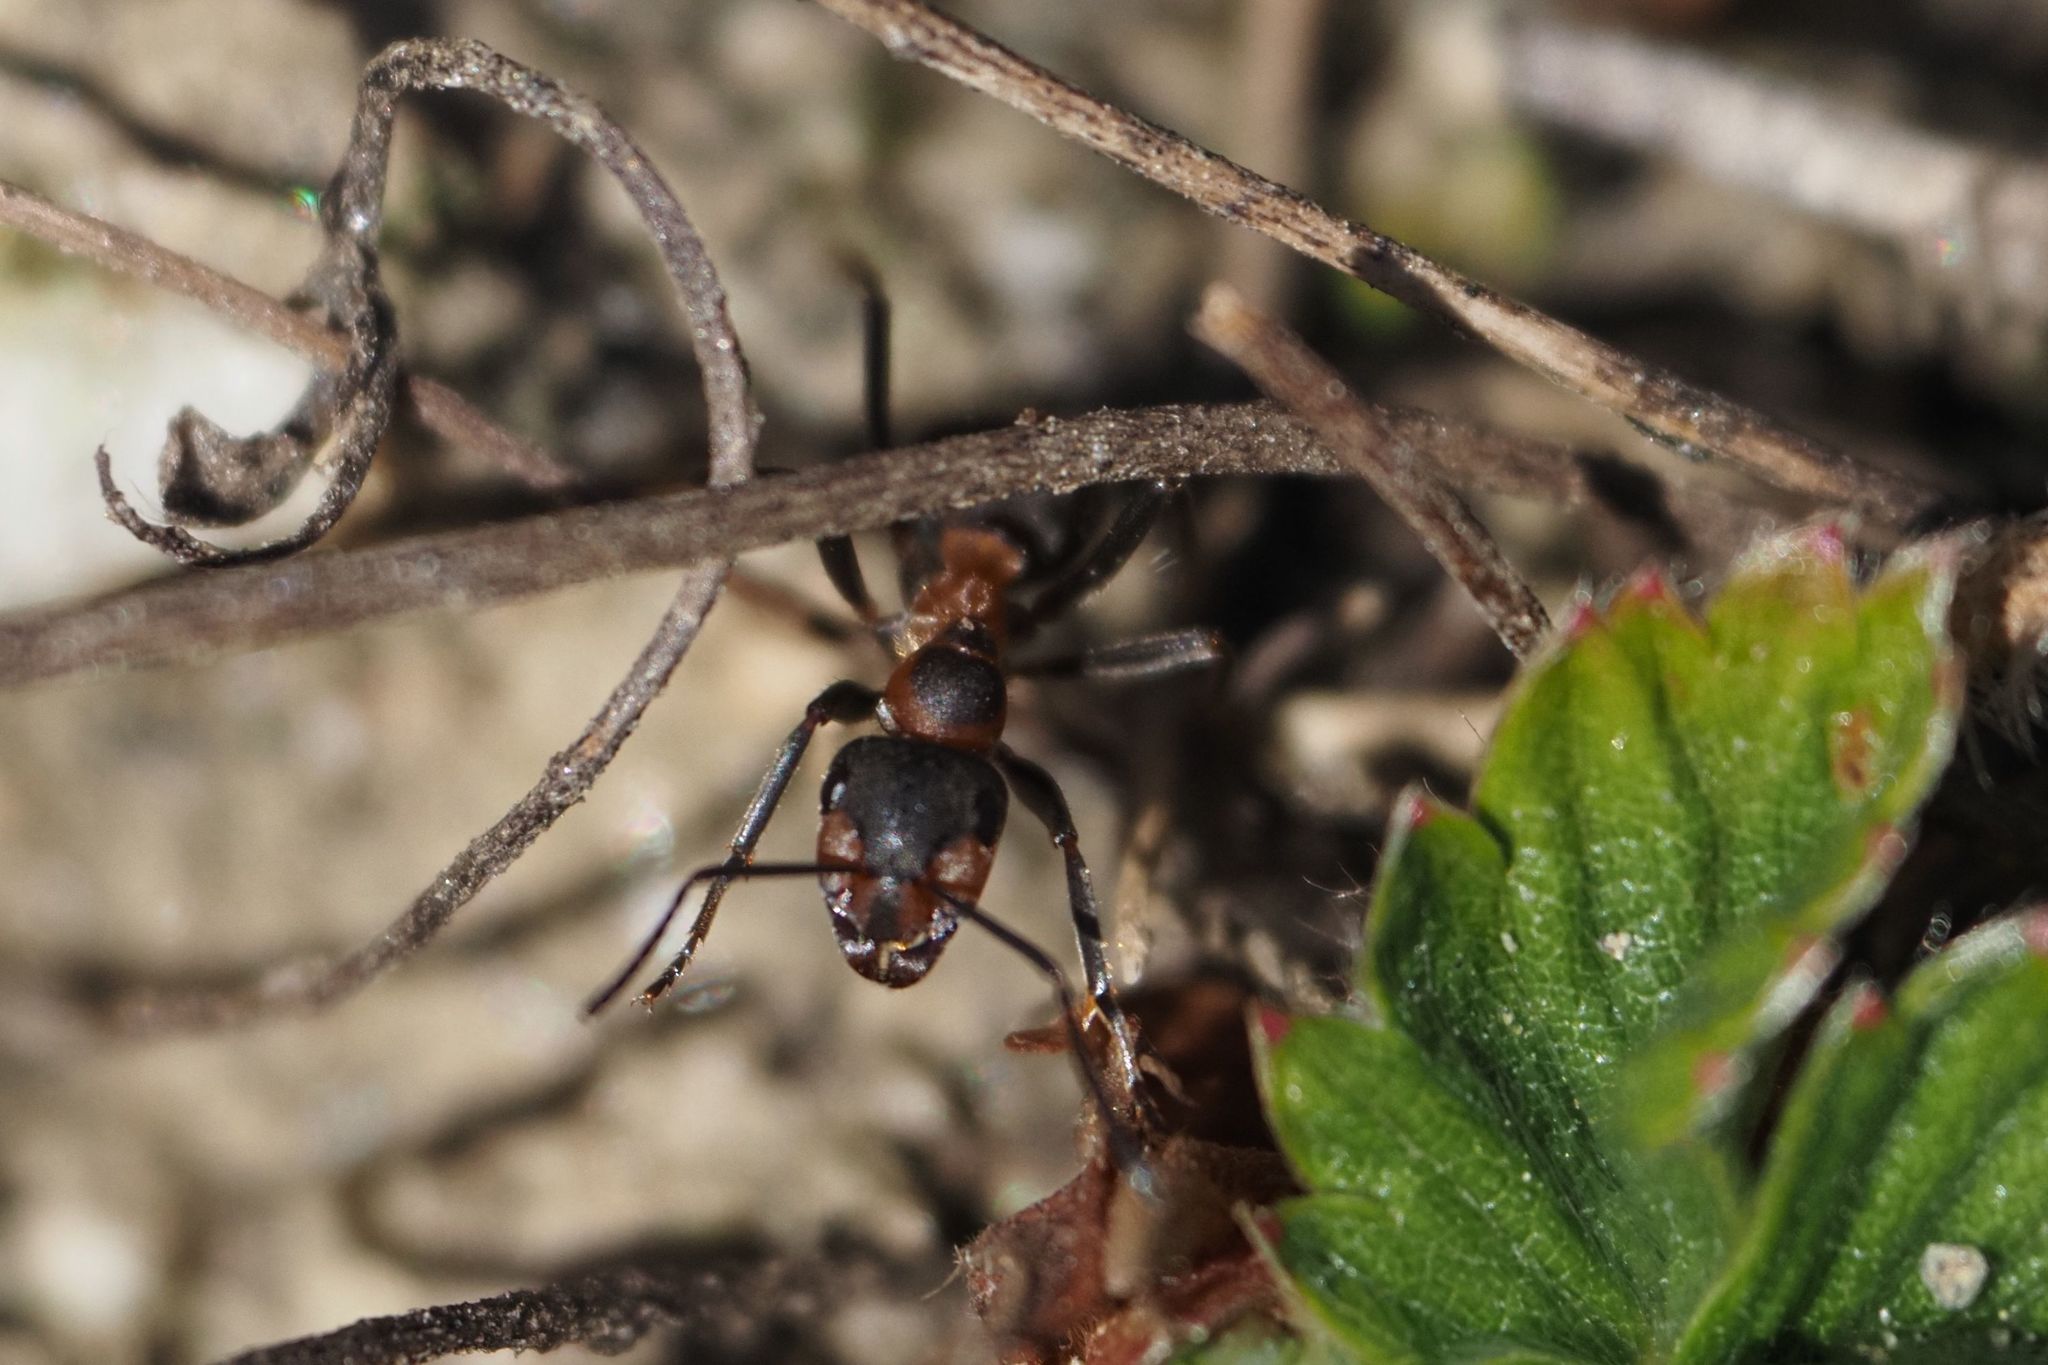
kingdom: Animalia
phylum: Arthropoda
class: Insecta
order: Hymenoptera
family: Formicidae
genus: Formica
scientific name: Formica rufa
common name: Red wood ant
